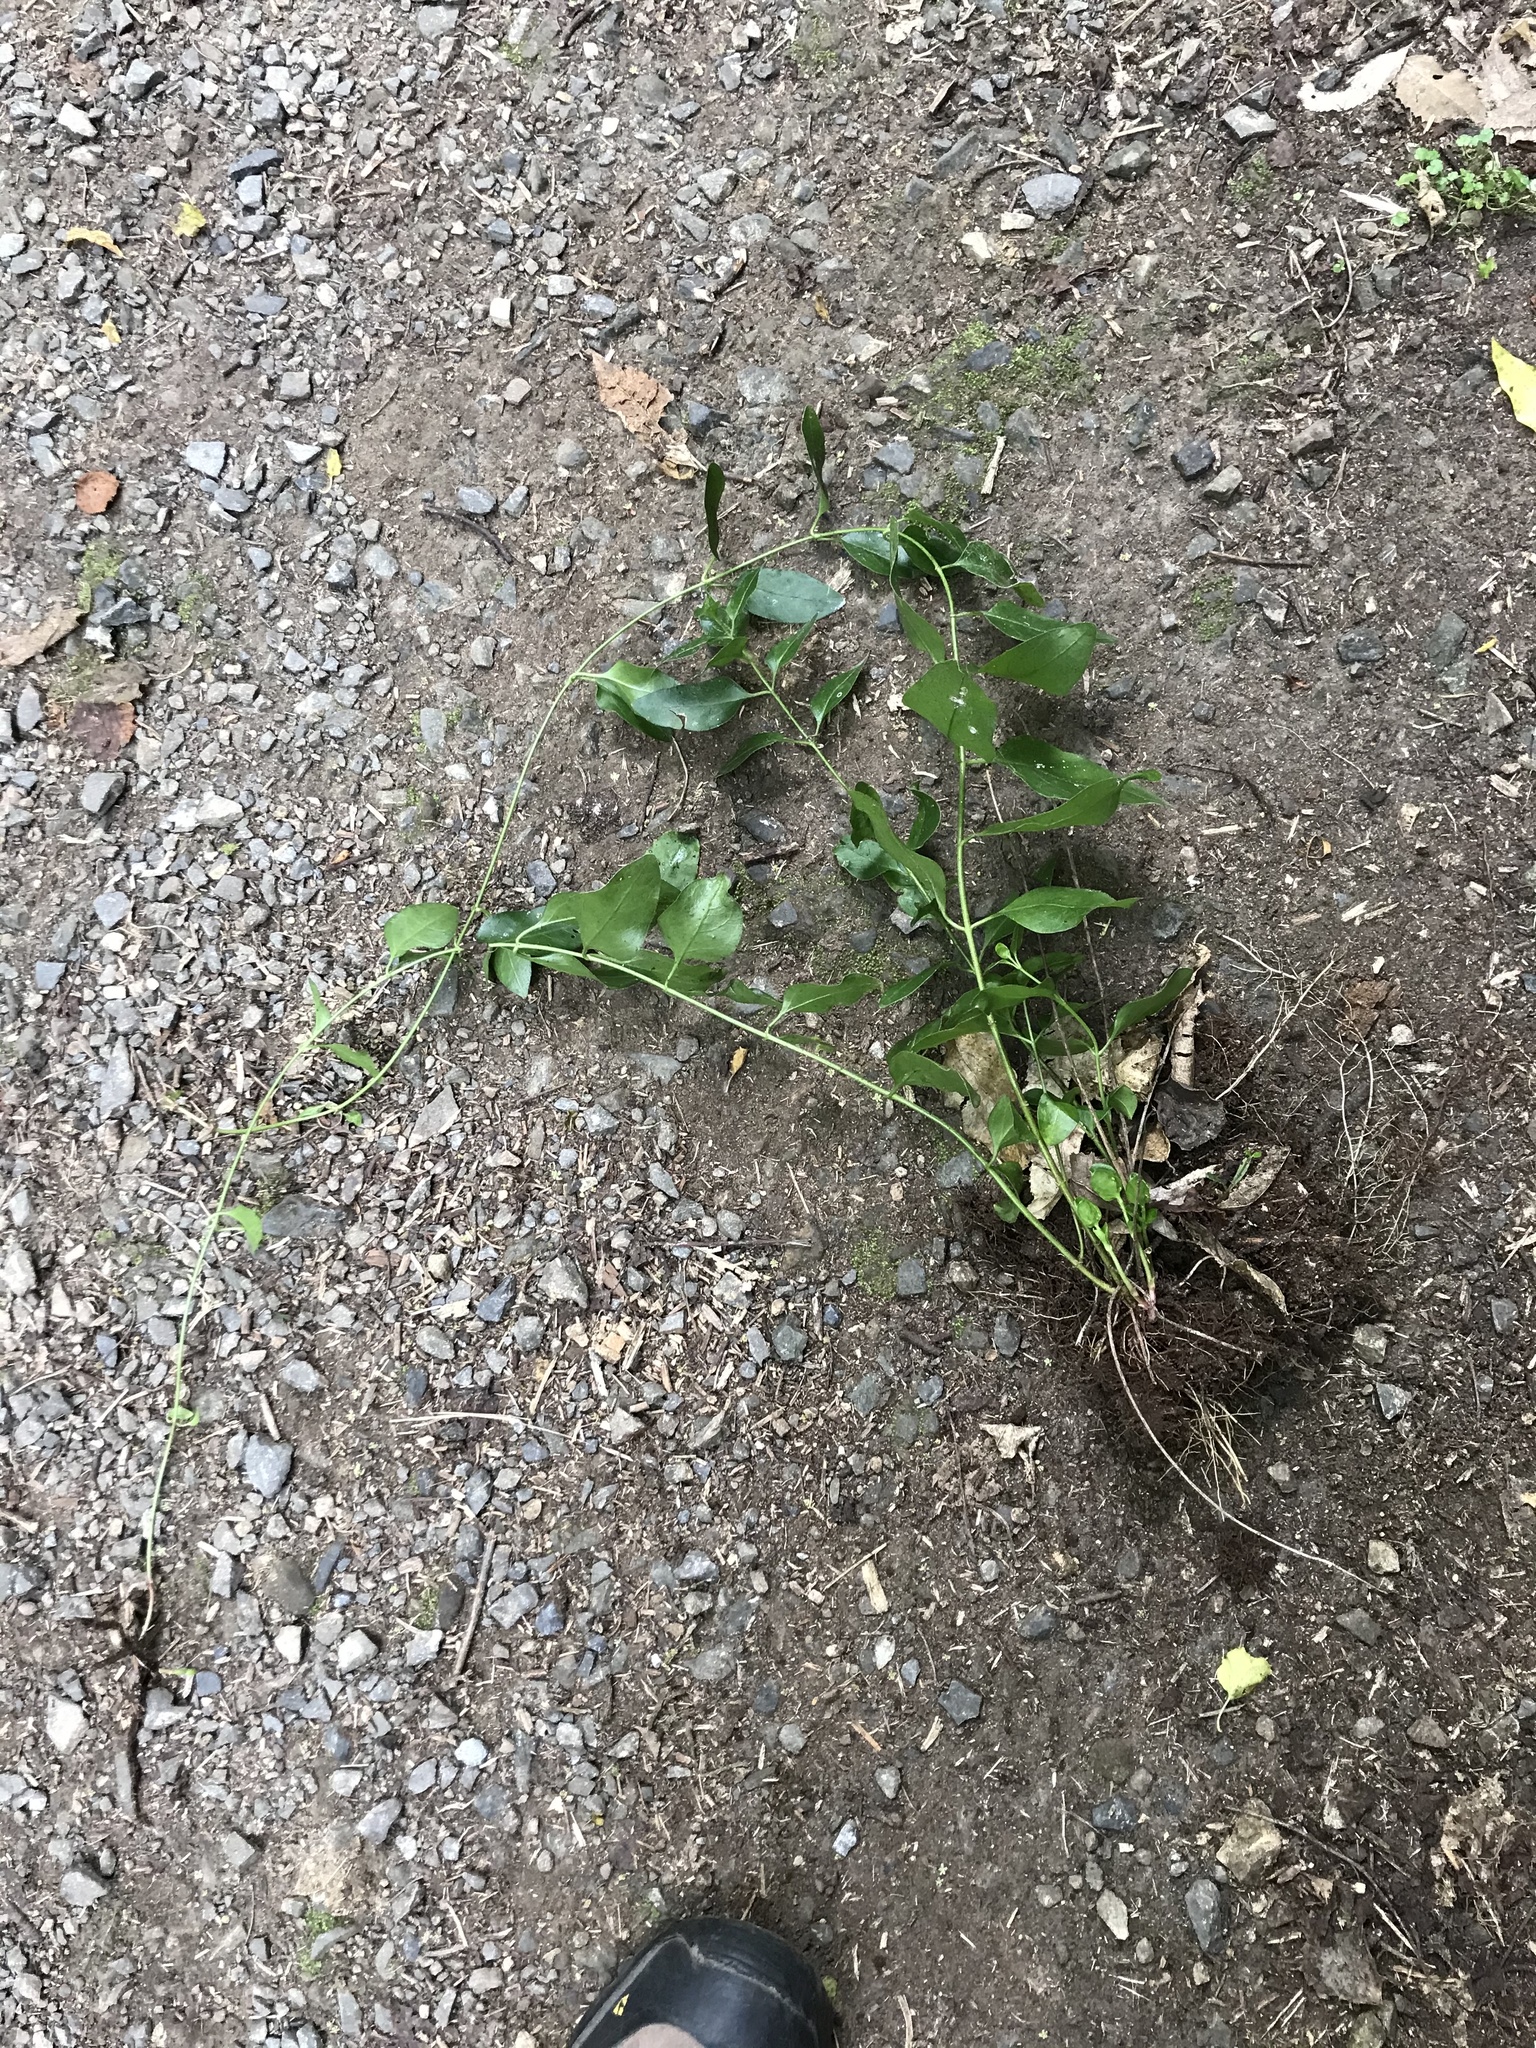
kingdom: Plantae
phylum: Tracheophyta
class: Magnoliopsida
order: Gentianales
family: Apocynaceae
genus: Vinca
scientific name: Vinca major
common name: Greater periwinkle
